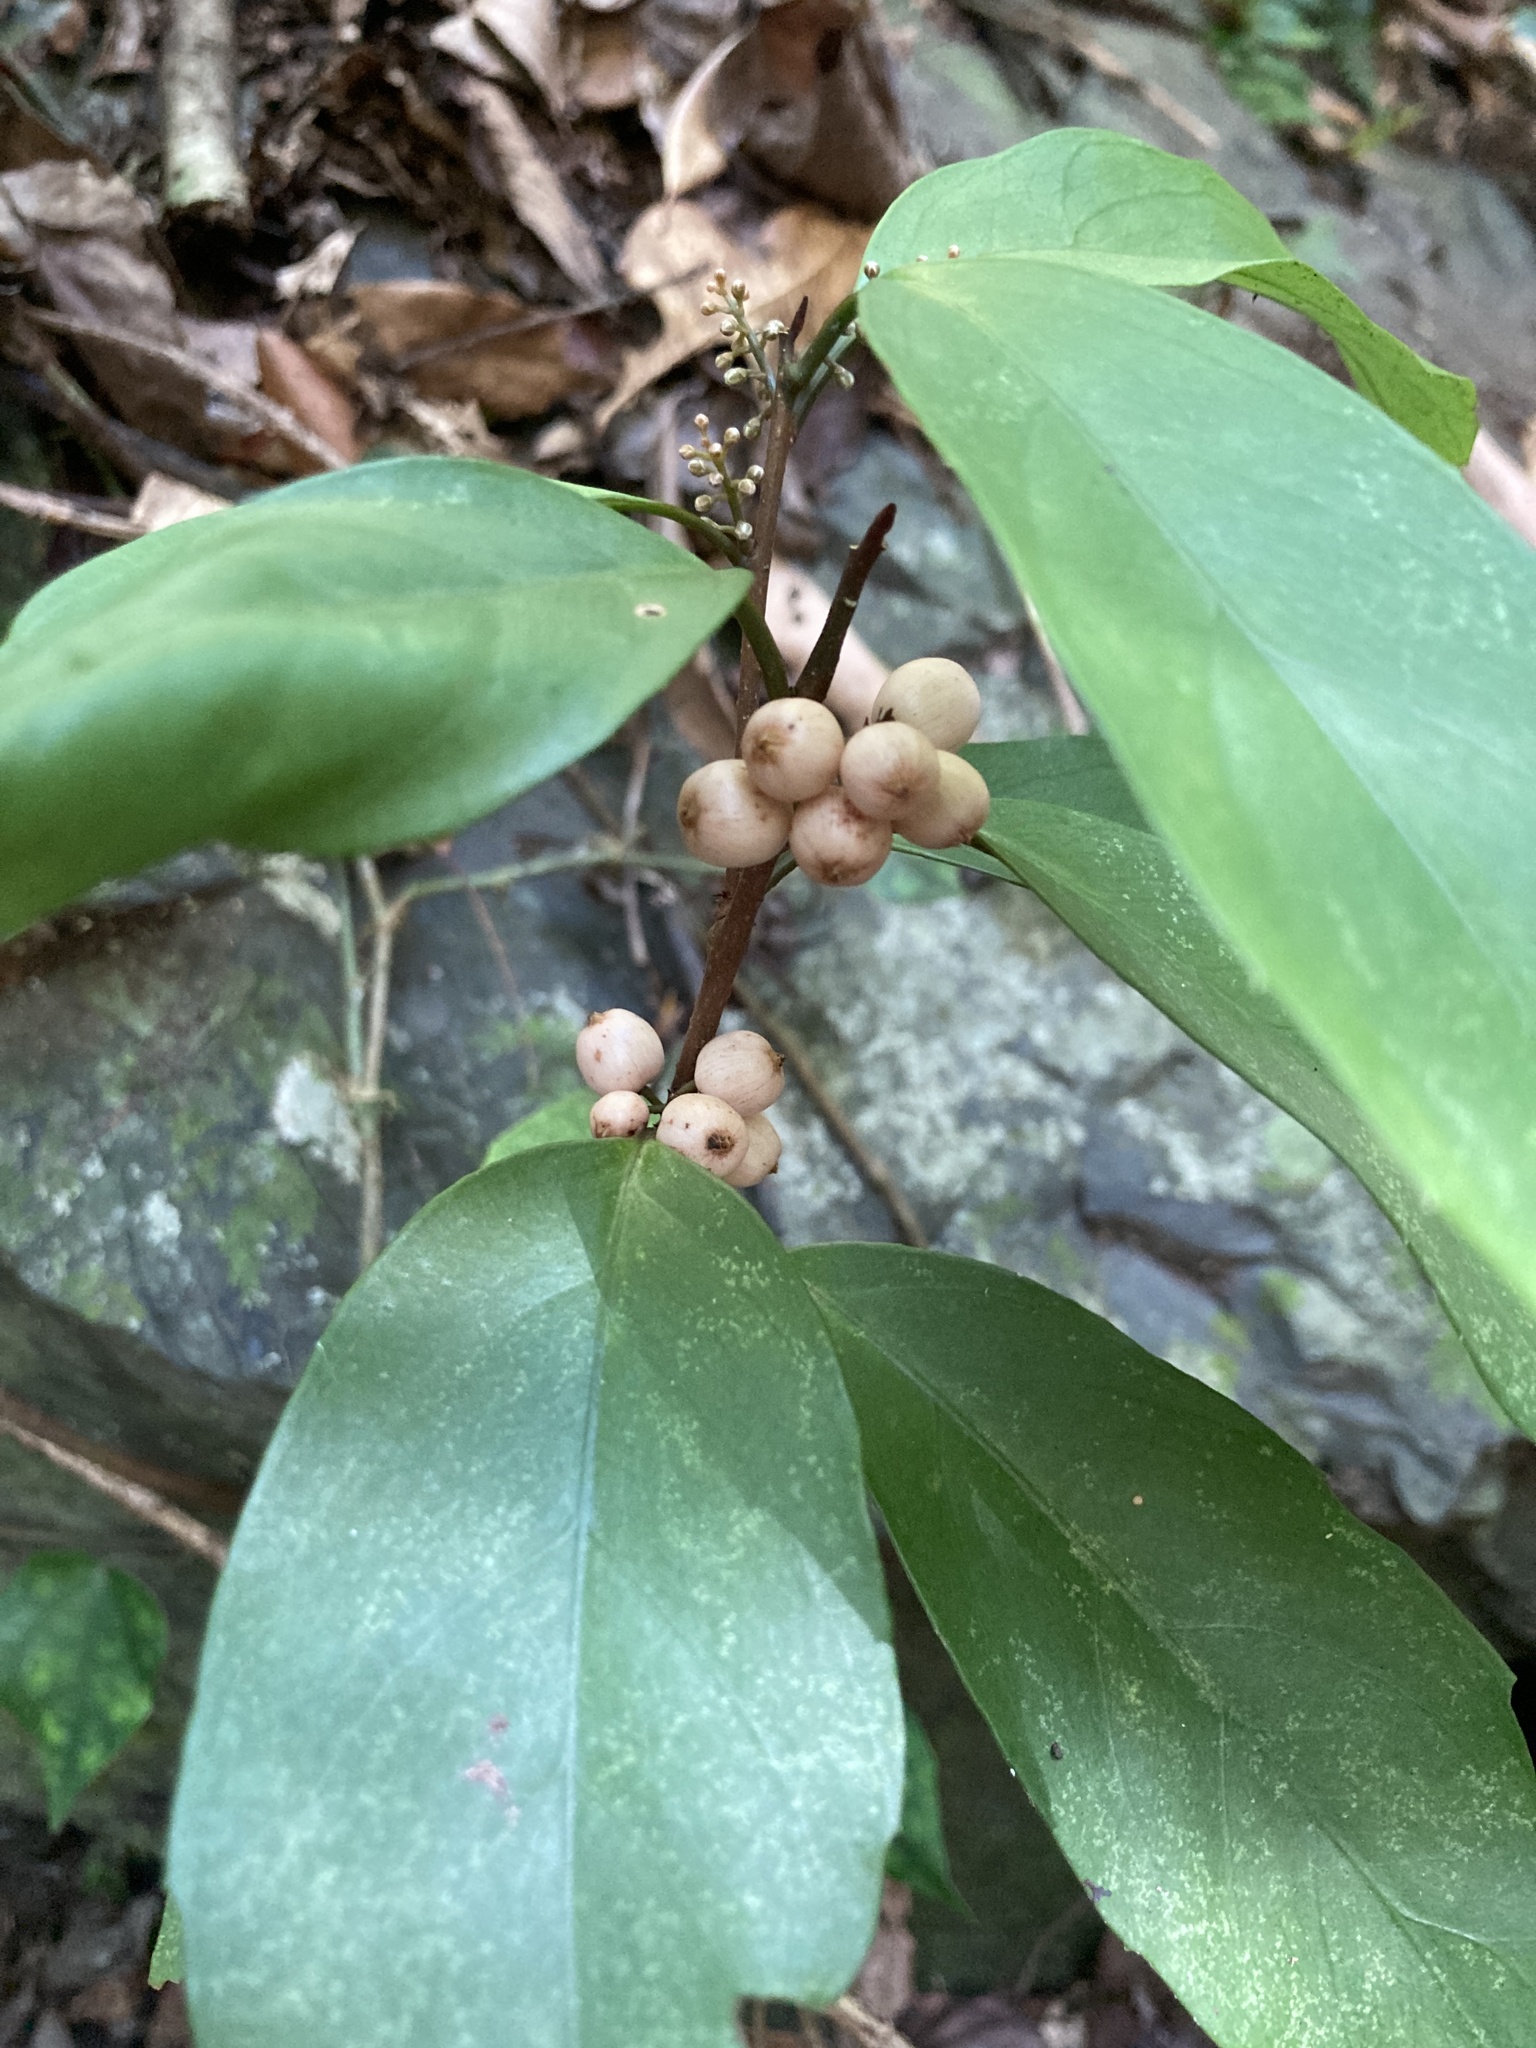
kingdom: Plantae
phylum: Tracheophyta
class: Magnoliopsida
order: Ericales
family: Primulaceae
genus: Maesa
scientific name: Maesa japonica
